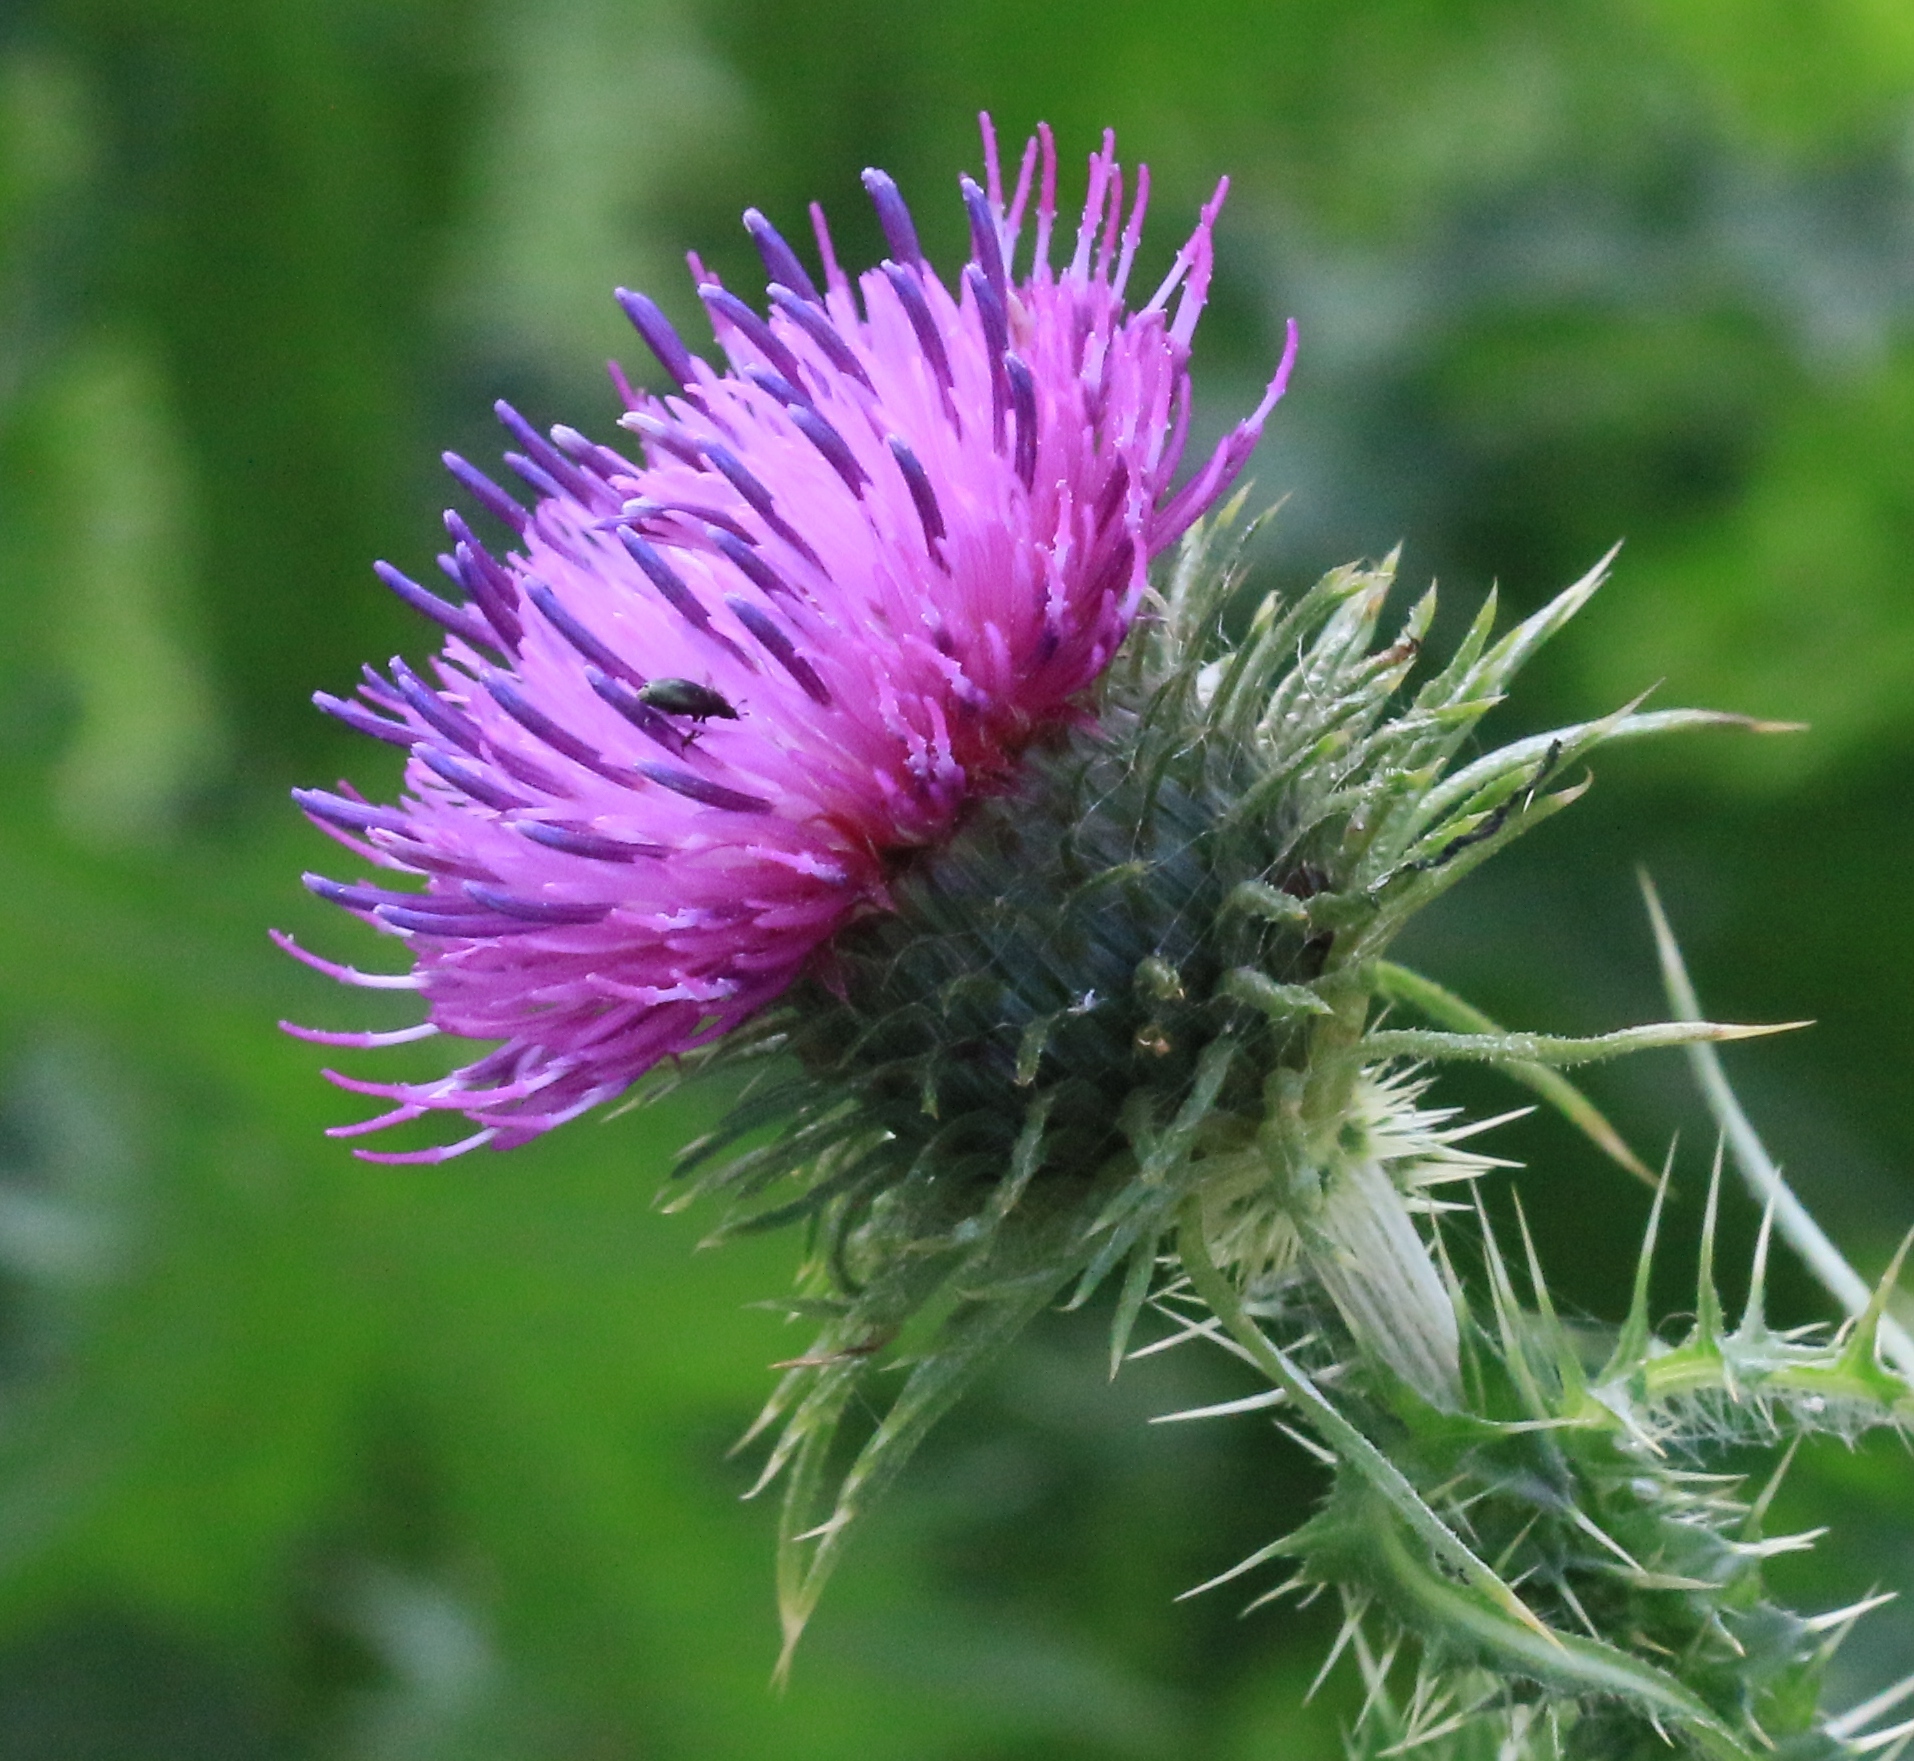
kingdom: Plantae
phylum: Tracheophyta
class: Magnoliopsida
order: Asterales
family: Asteraceae
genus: Carduus
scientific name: Carduus crispus
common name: Welted thistle
